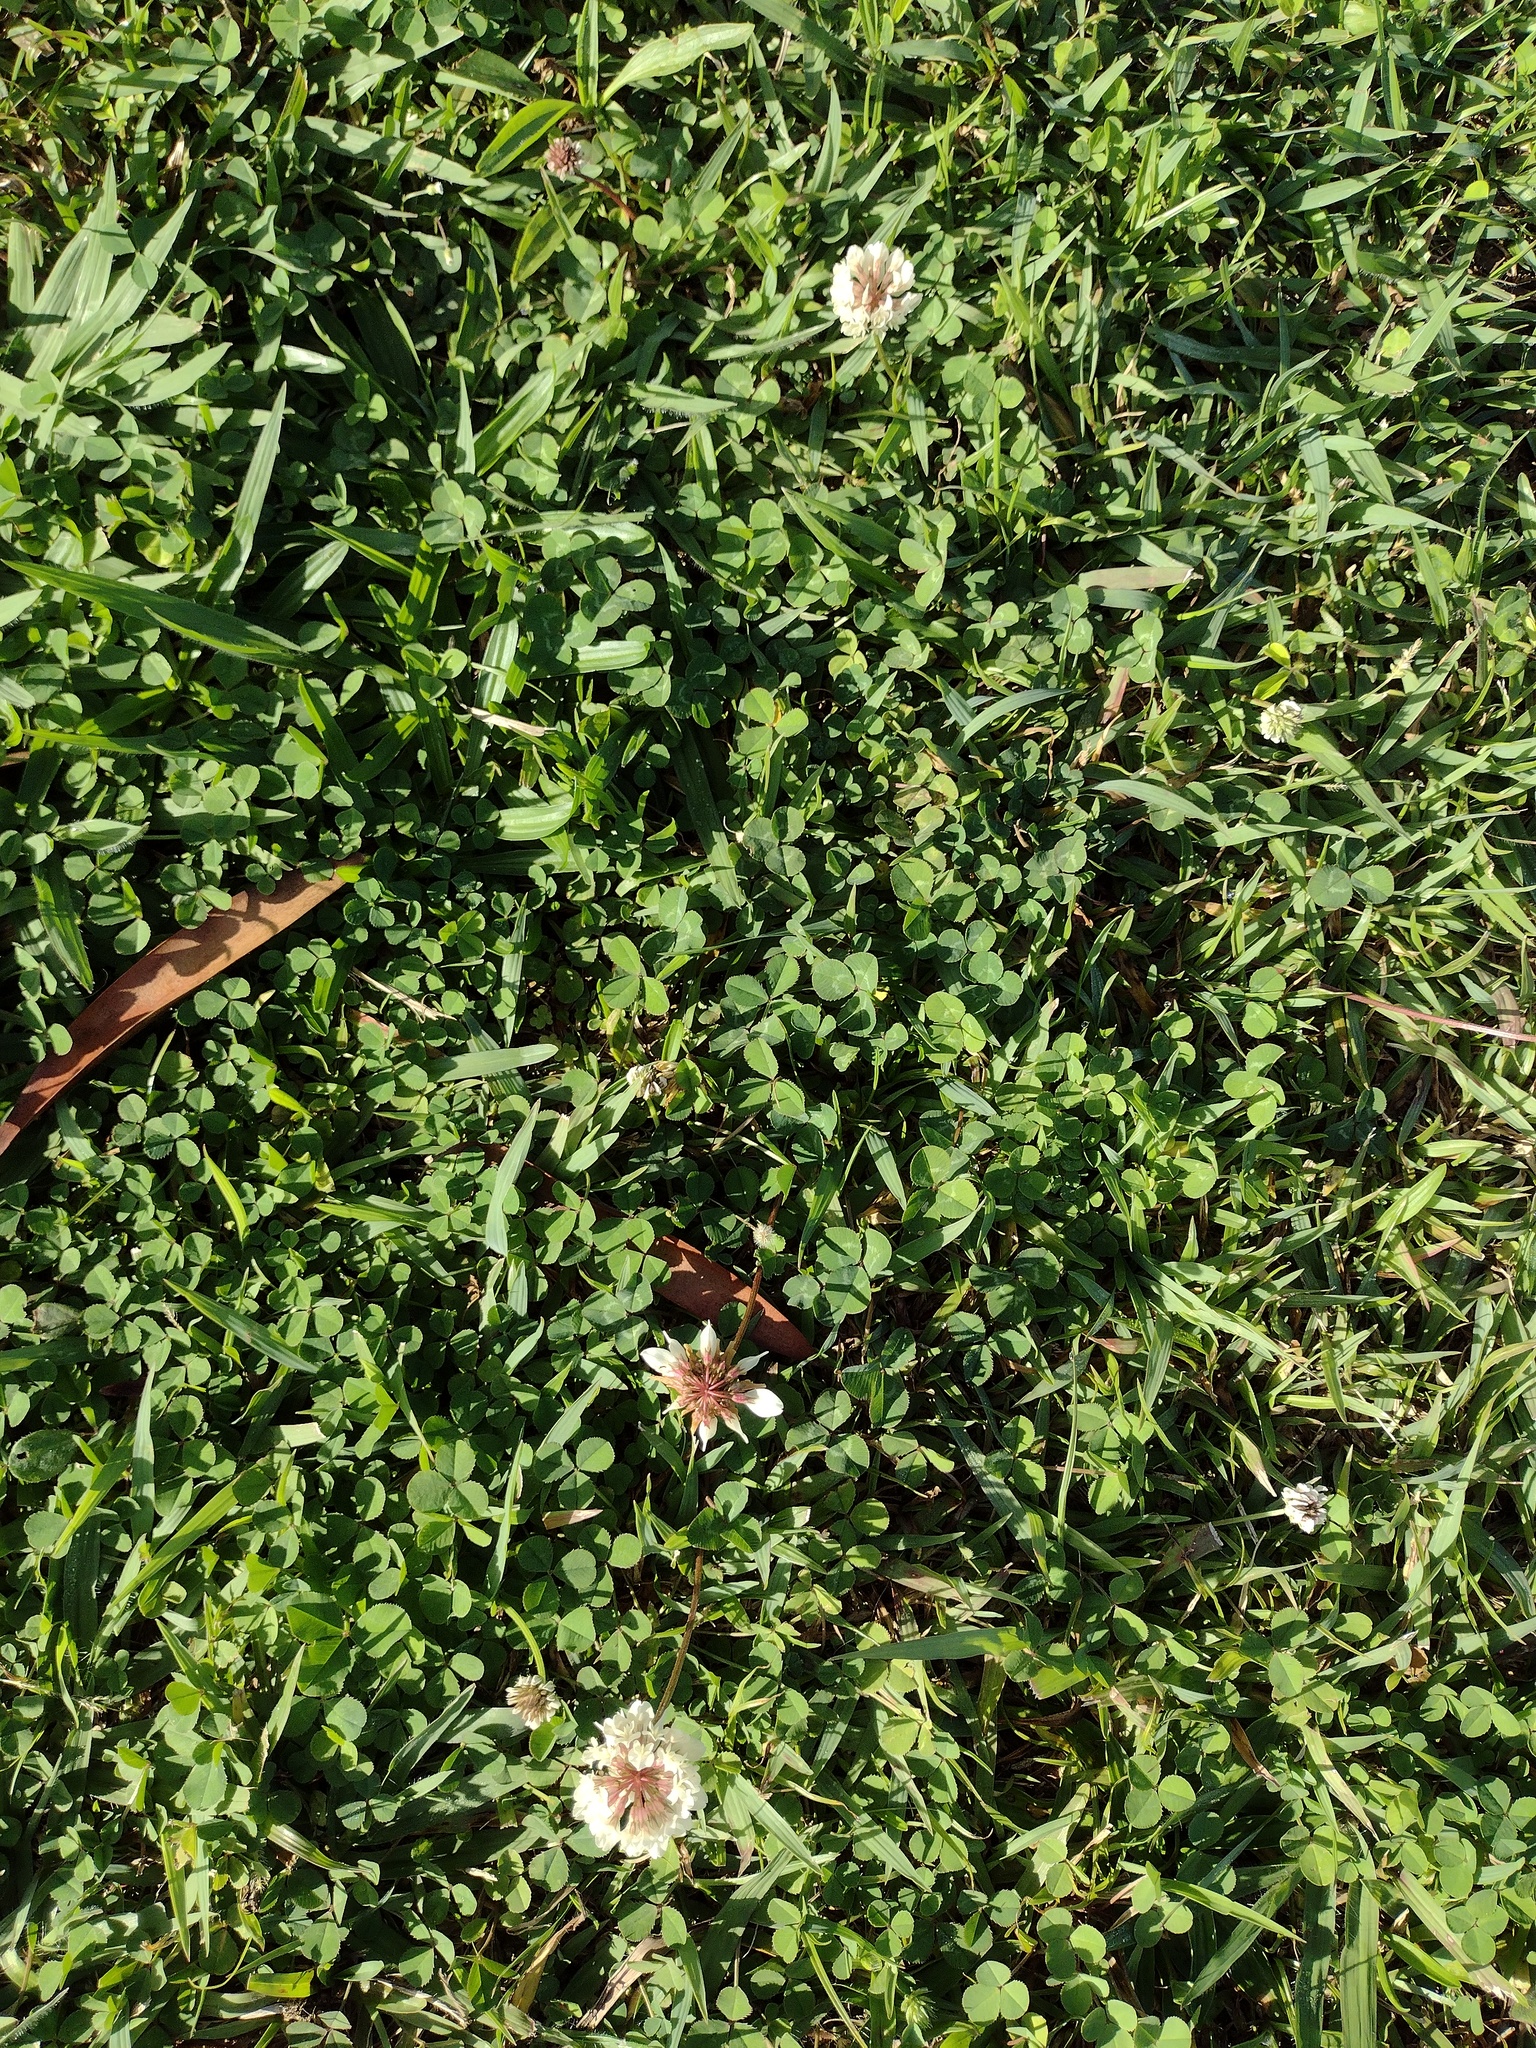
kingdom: Plantae
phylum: Tracheophyta
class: Magnoliopsida
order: Fabales
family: Fabaceae
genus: Trifolium
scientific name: Trifolium repens
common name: White clover
